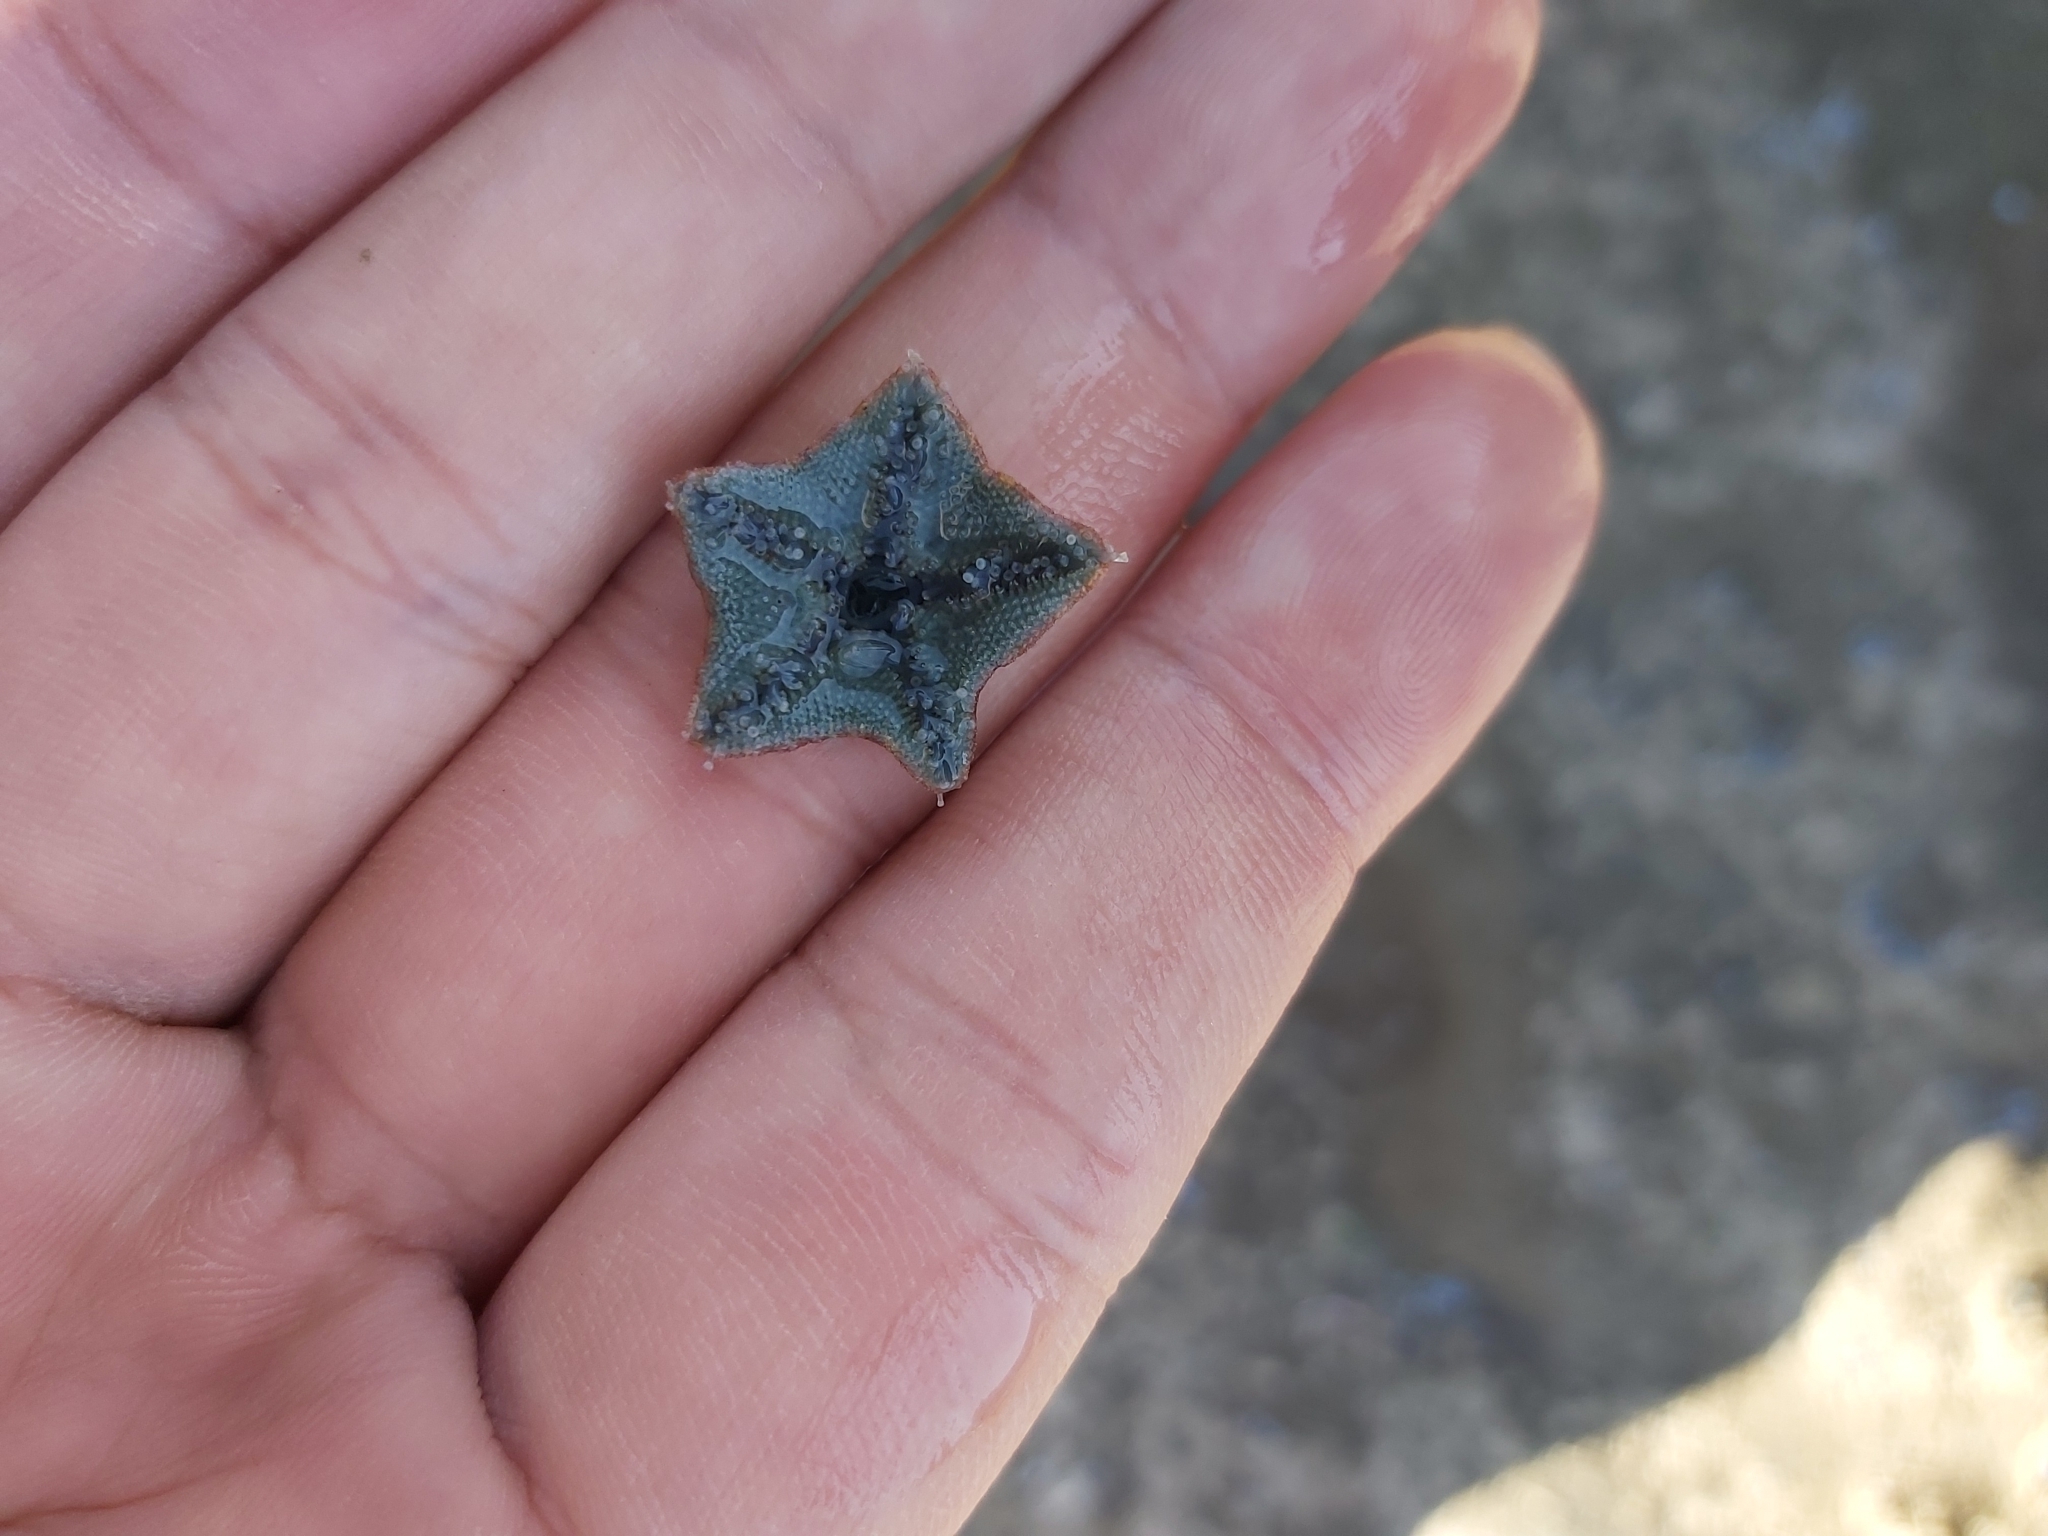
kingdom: Animalia
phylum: Echinodermata
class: Asteroidea
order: Valvatida
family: Asterinidae
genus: Parvulastra
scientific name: Parvulastra exigua
